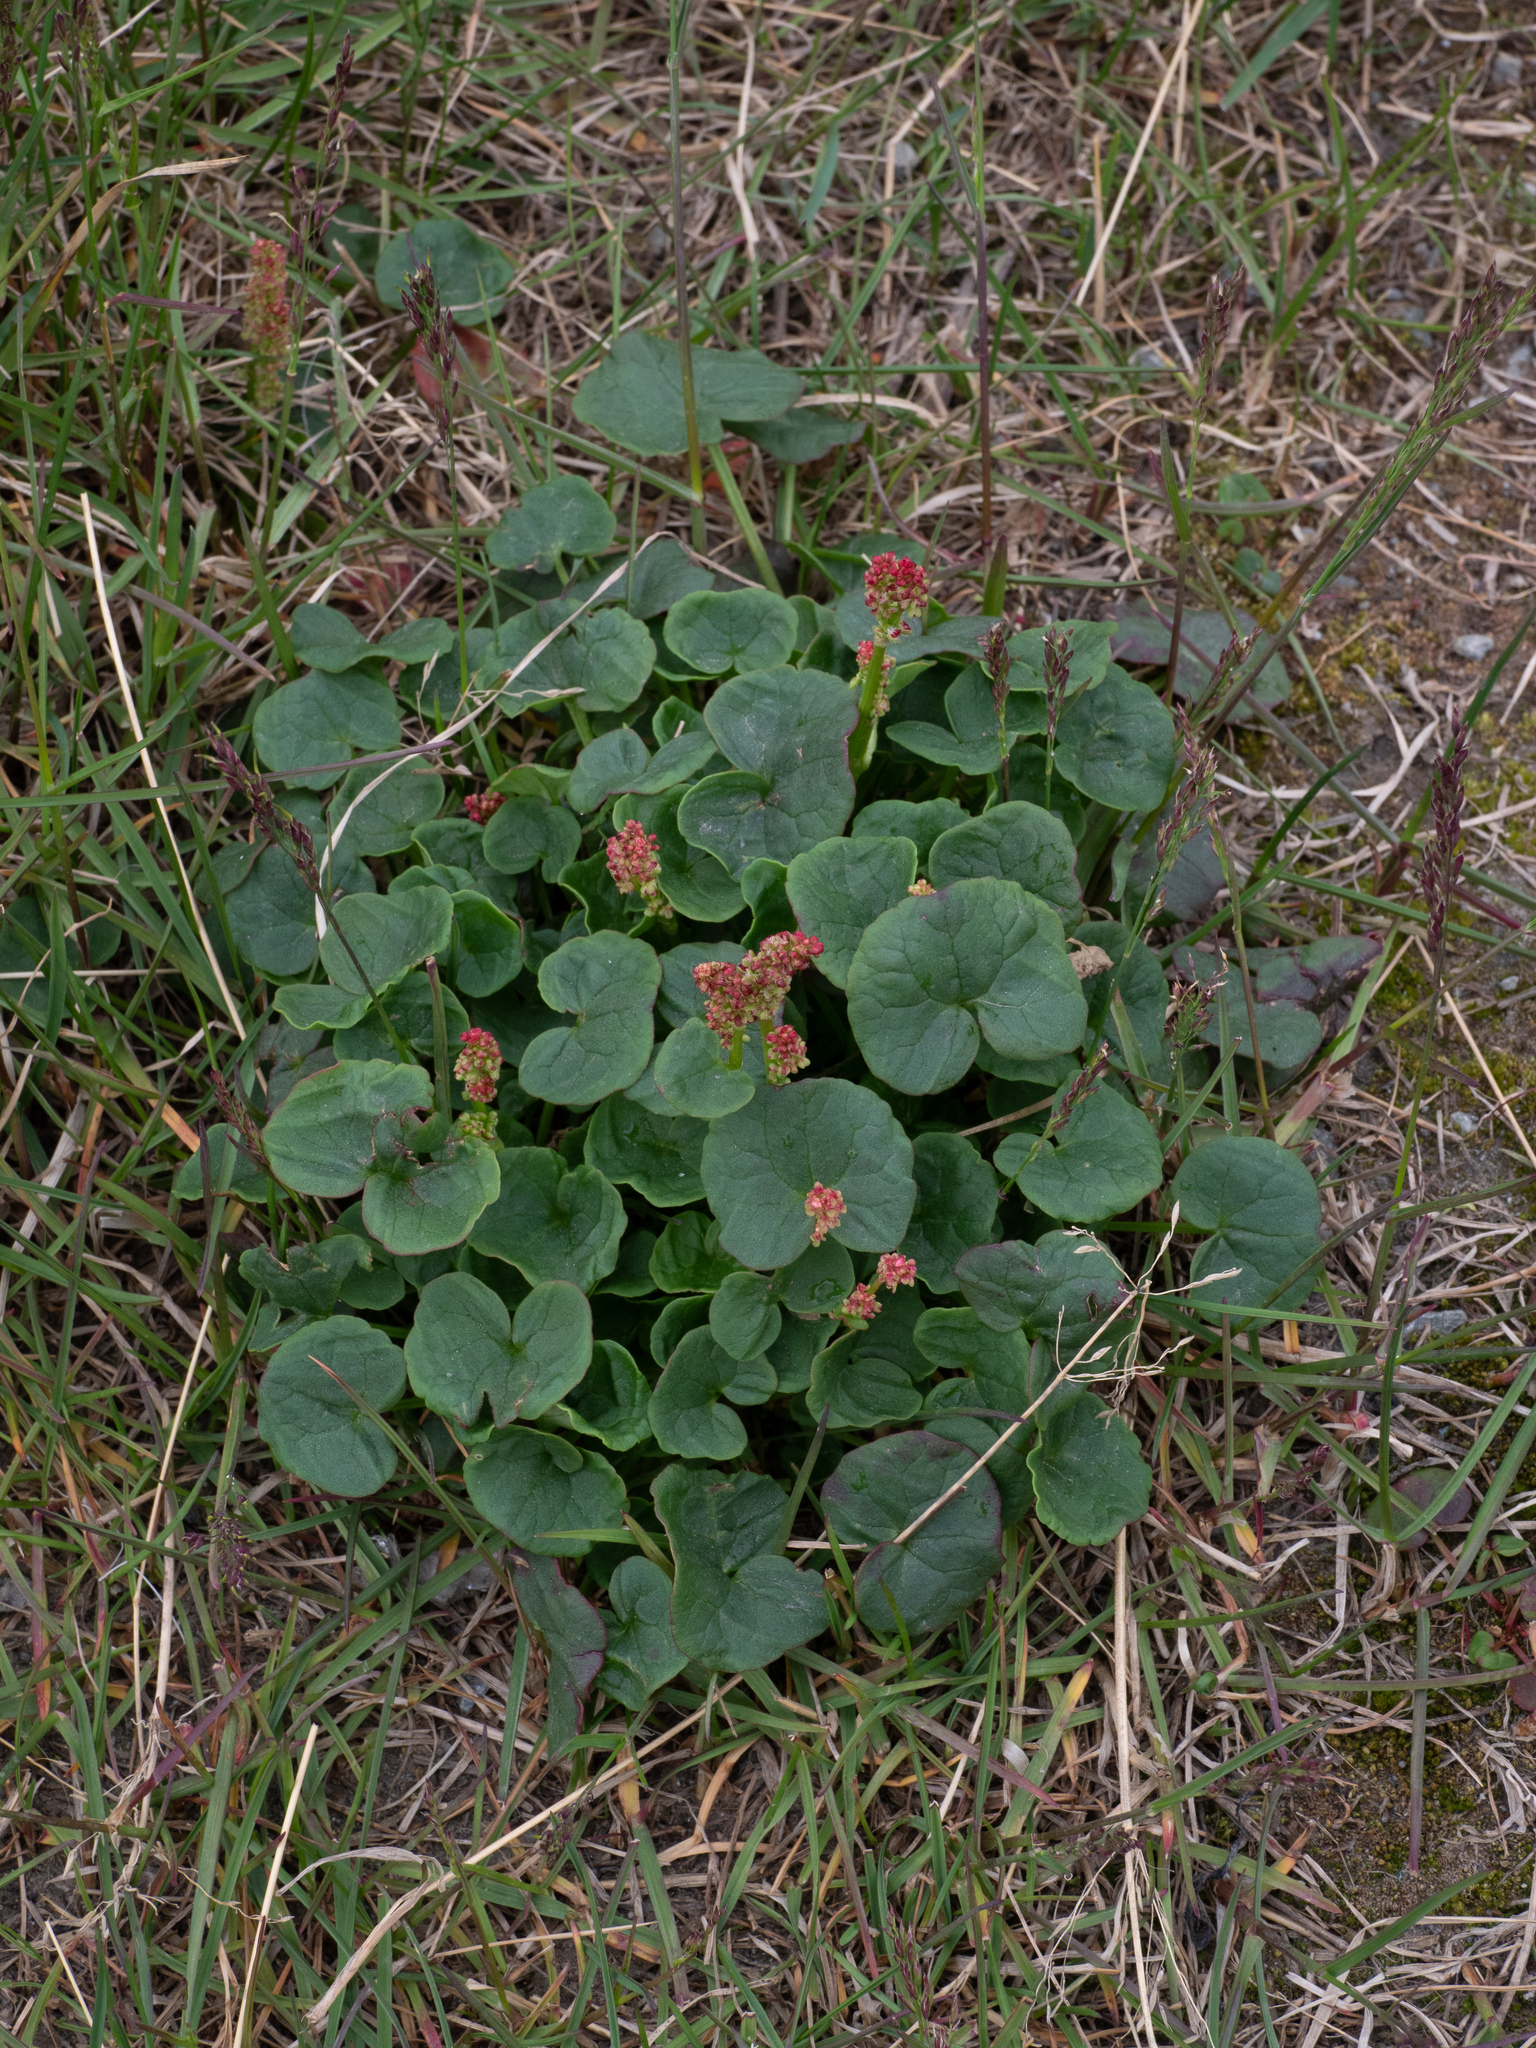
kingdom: Plantae
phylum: Tracheophyta
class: Magnoliopsida
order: Caryophyllales
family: Polygonaceae
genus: Oxyria
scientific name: Oxyria digyna
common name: Alpine mountain-sorrel
